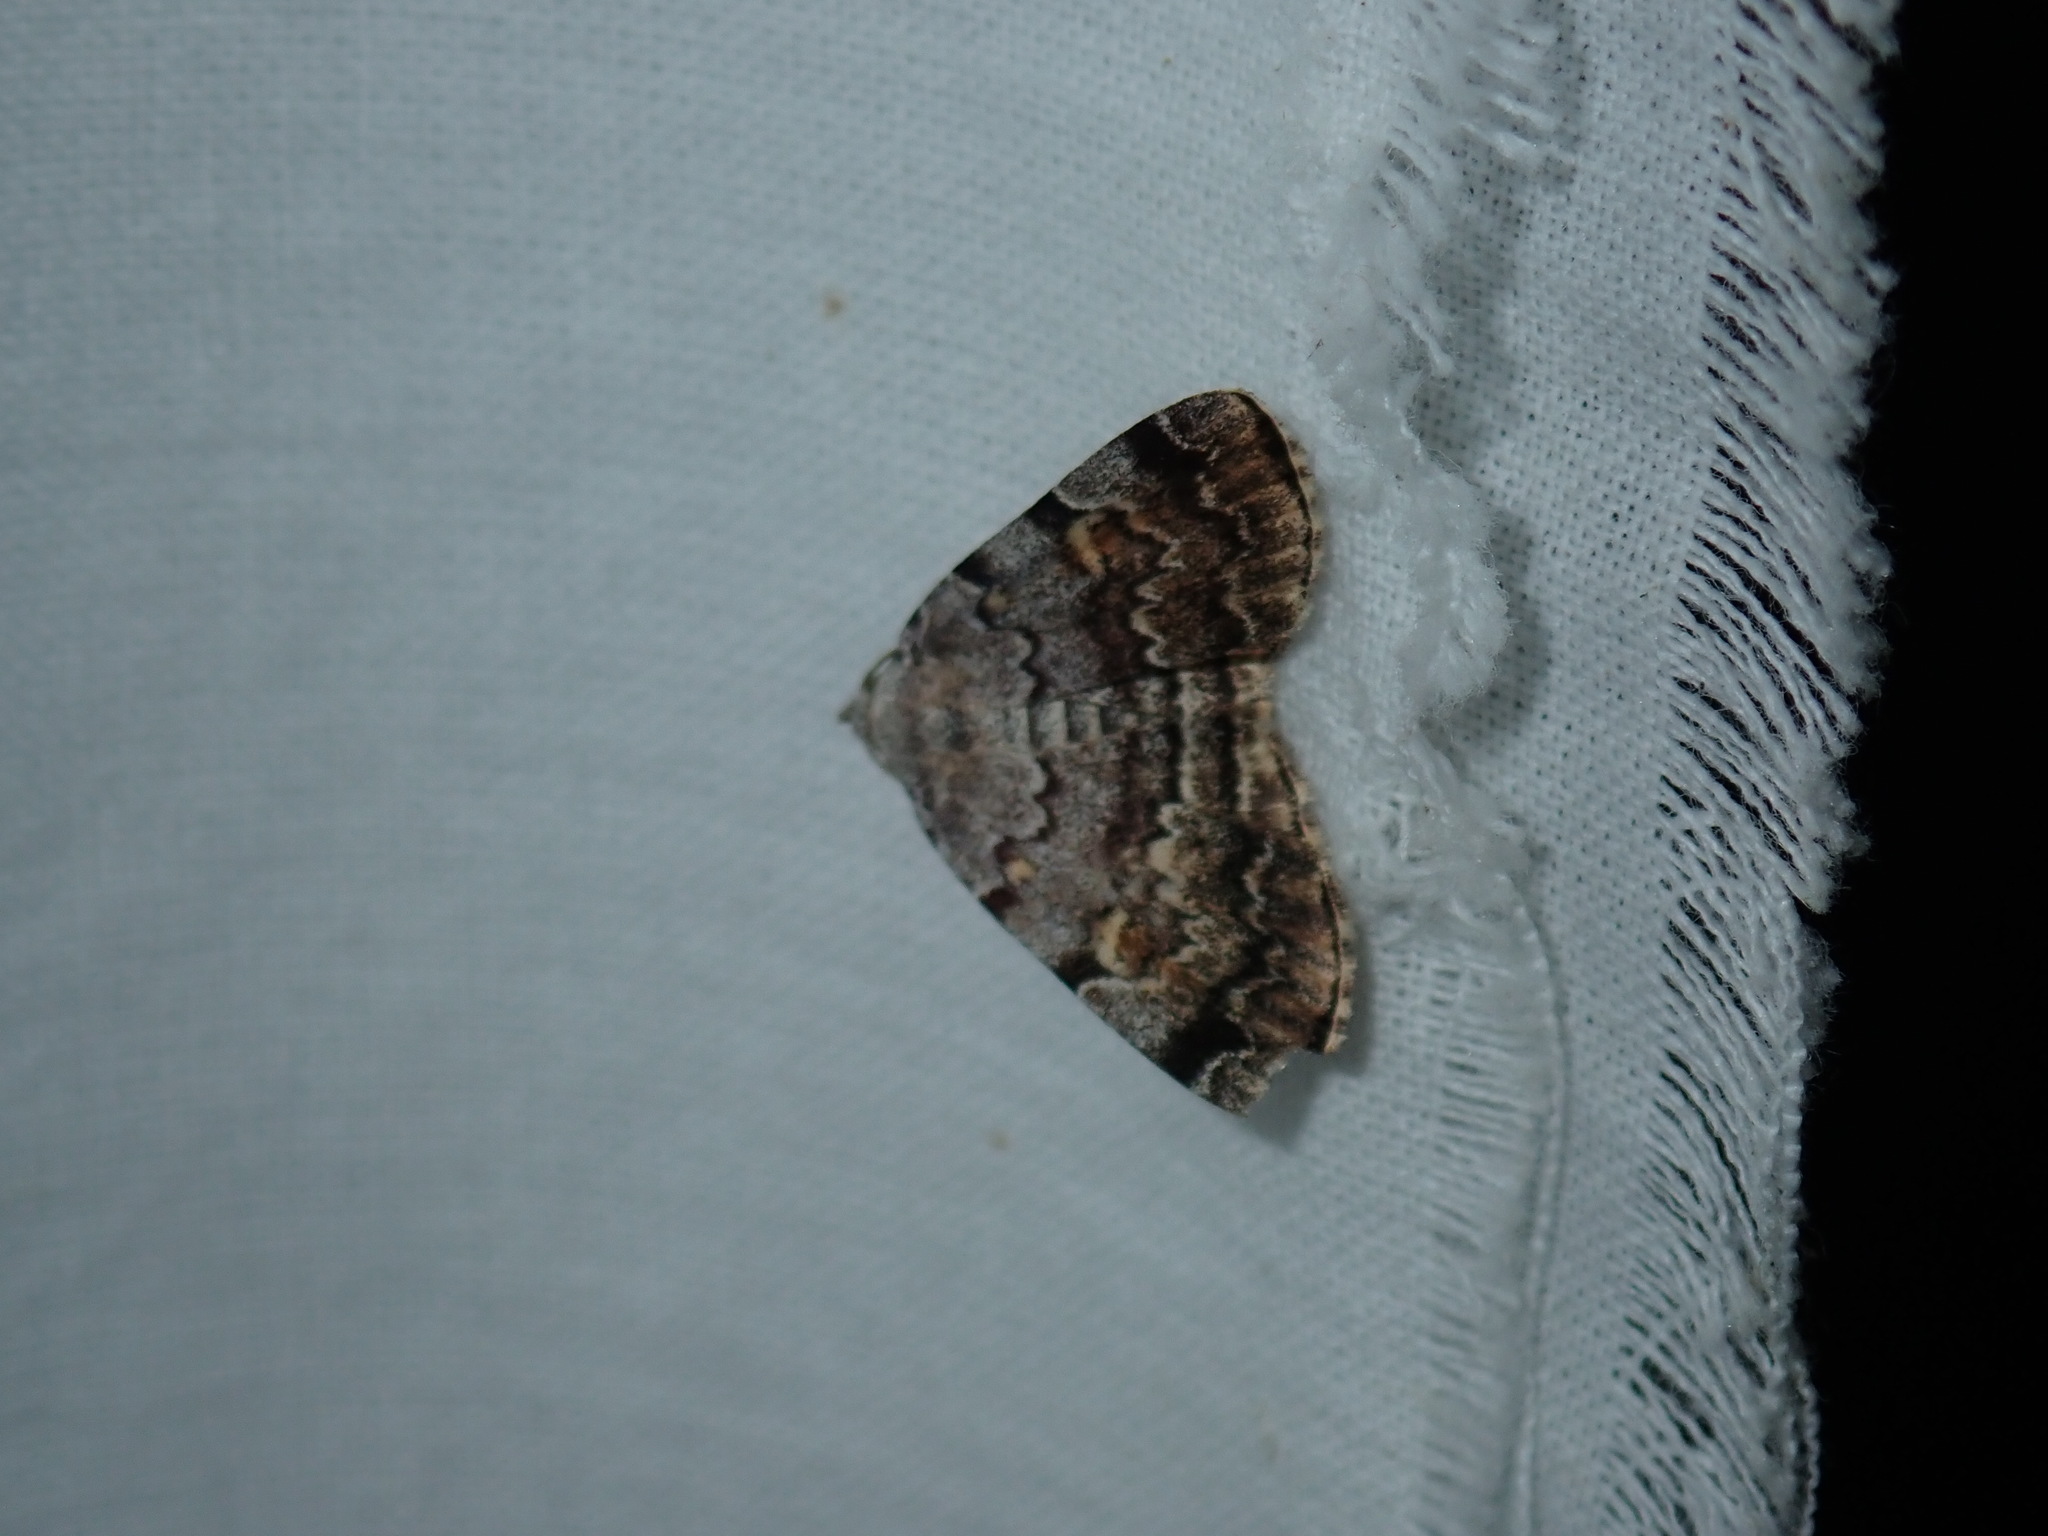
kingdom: Animalia
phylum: Arthropoda
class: Insecta
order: Lepidoptera
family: Erebidae
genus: Idia
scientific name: Idia americalis
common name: American idia moth
